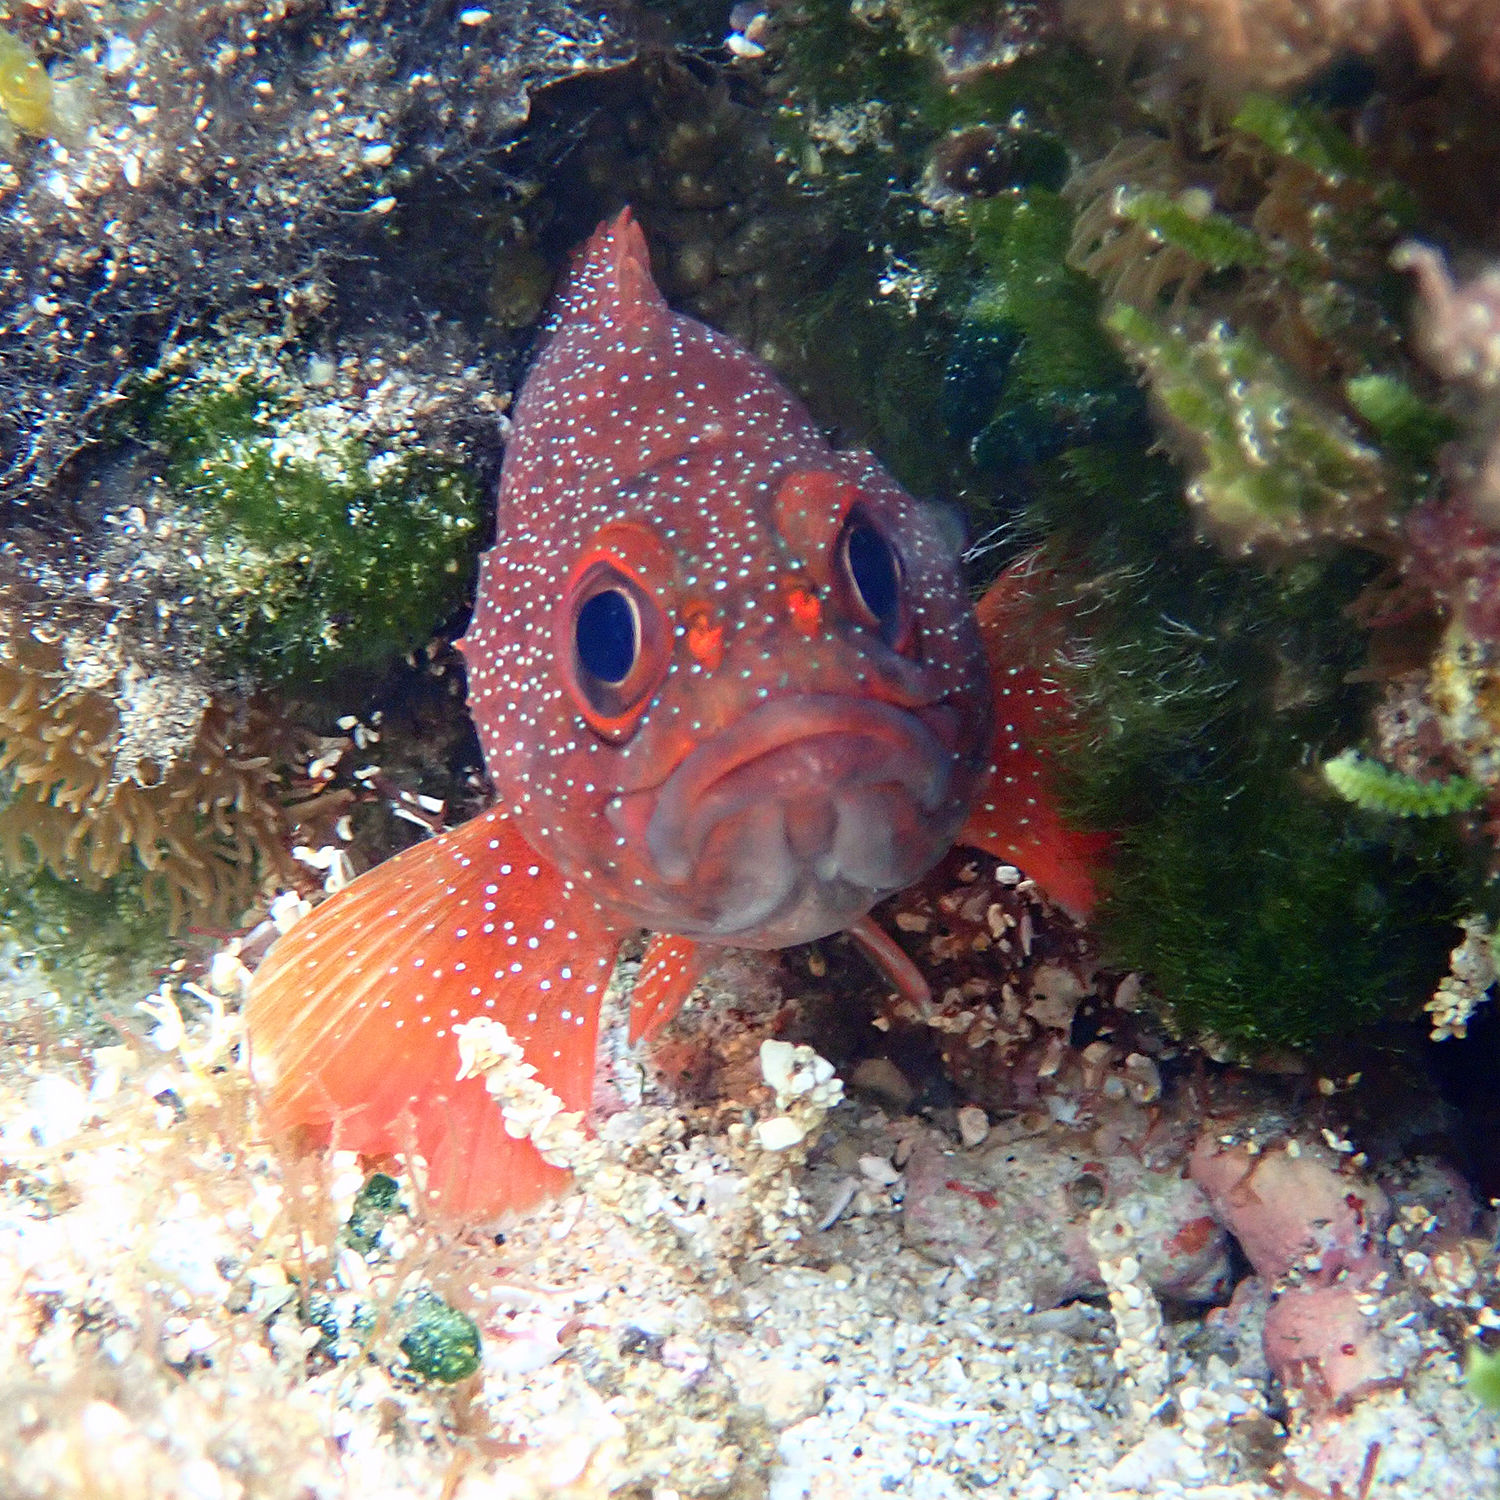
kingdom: Animalia
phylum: Chordata
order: Perciformes
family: Serranidae
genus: Trachypoma
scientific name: Trachypoma macracanthus
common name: Toadstool grouper
